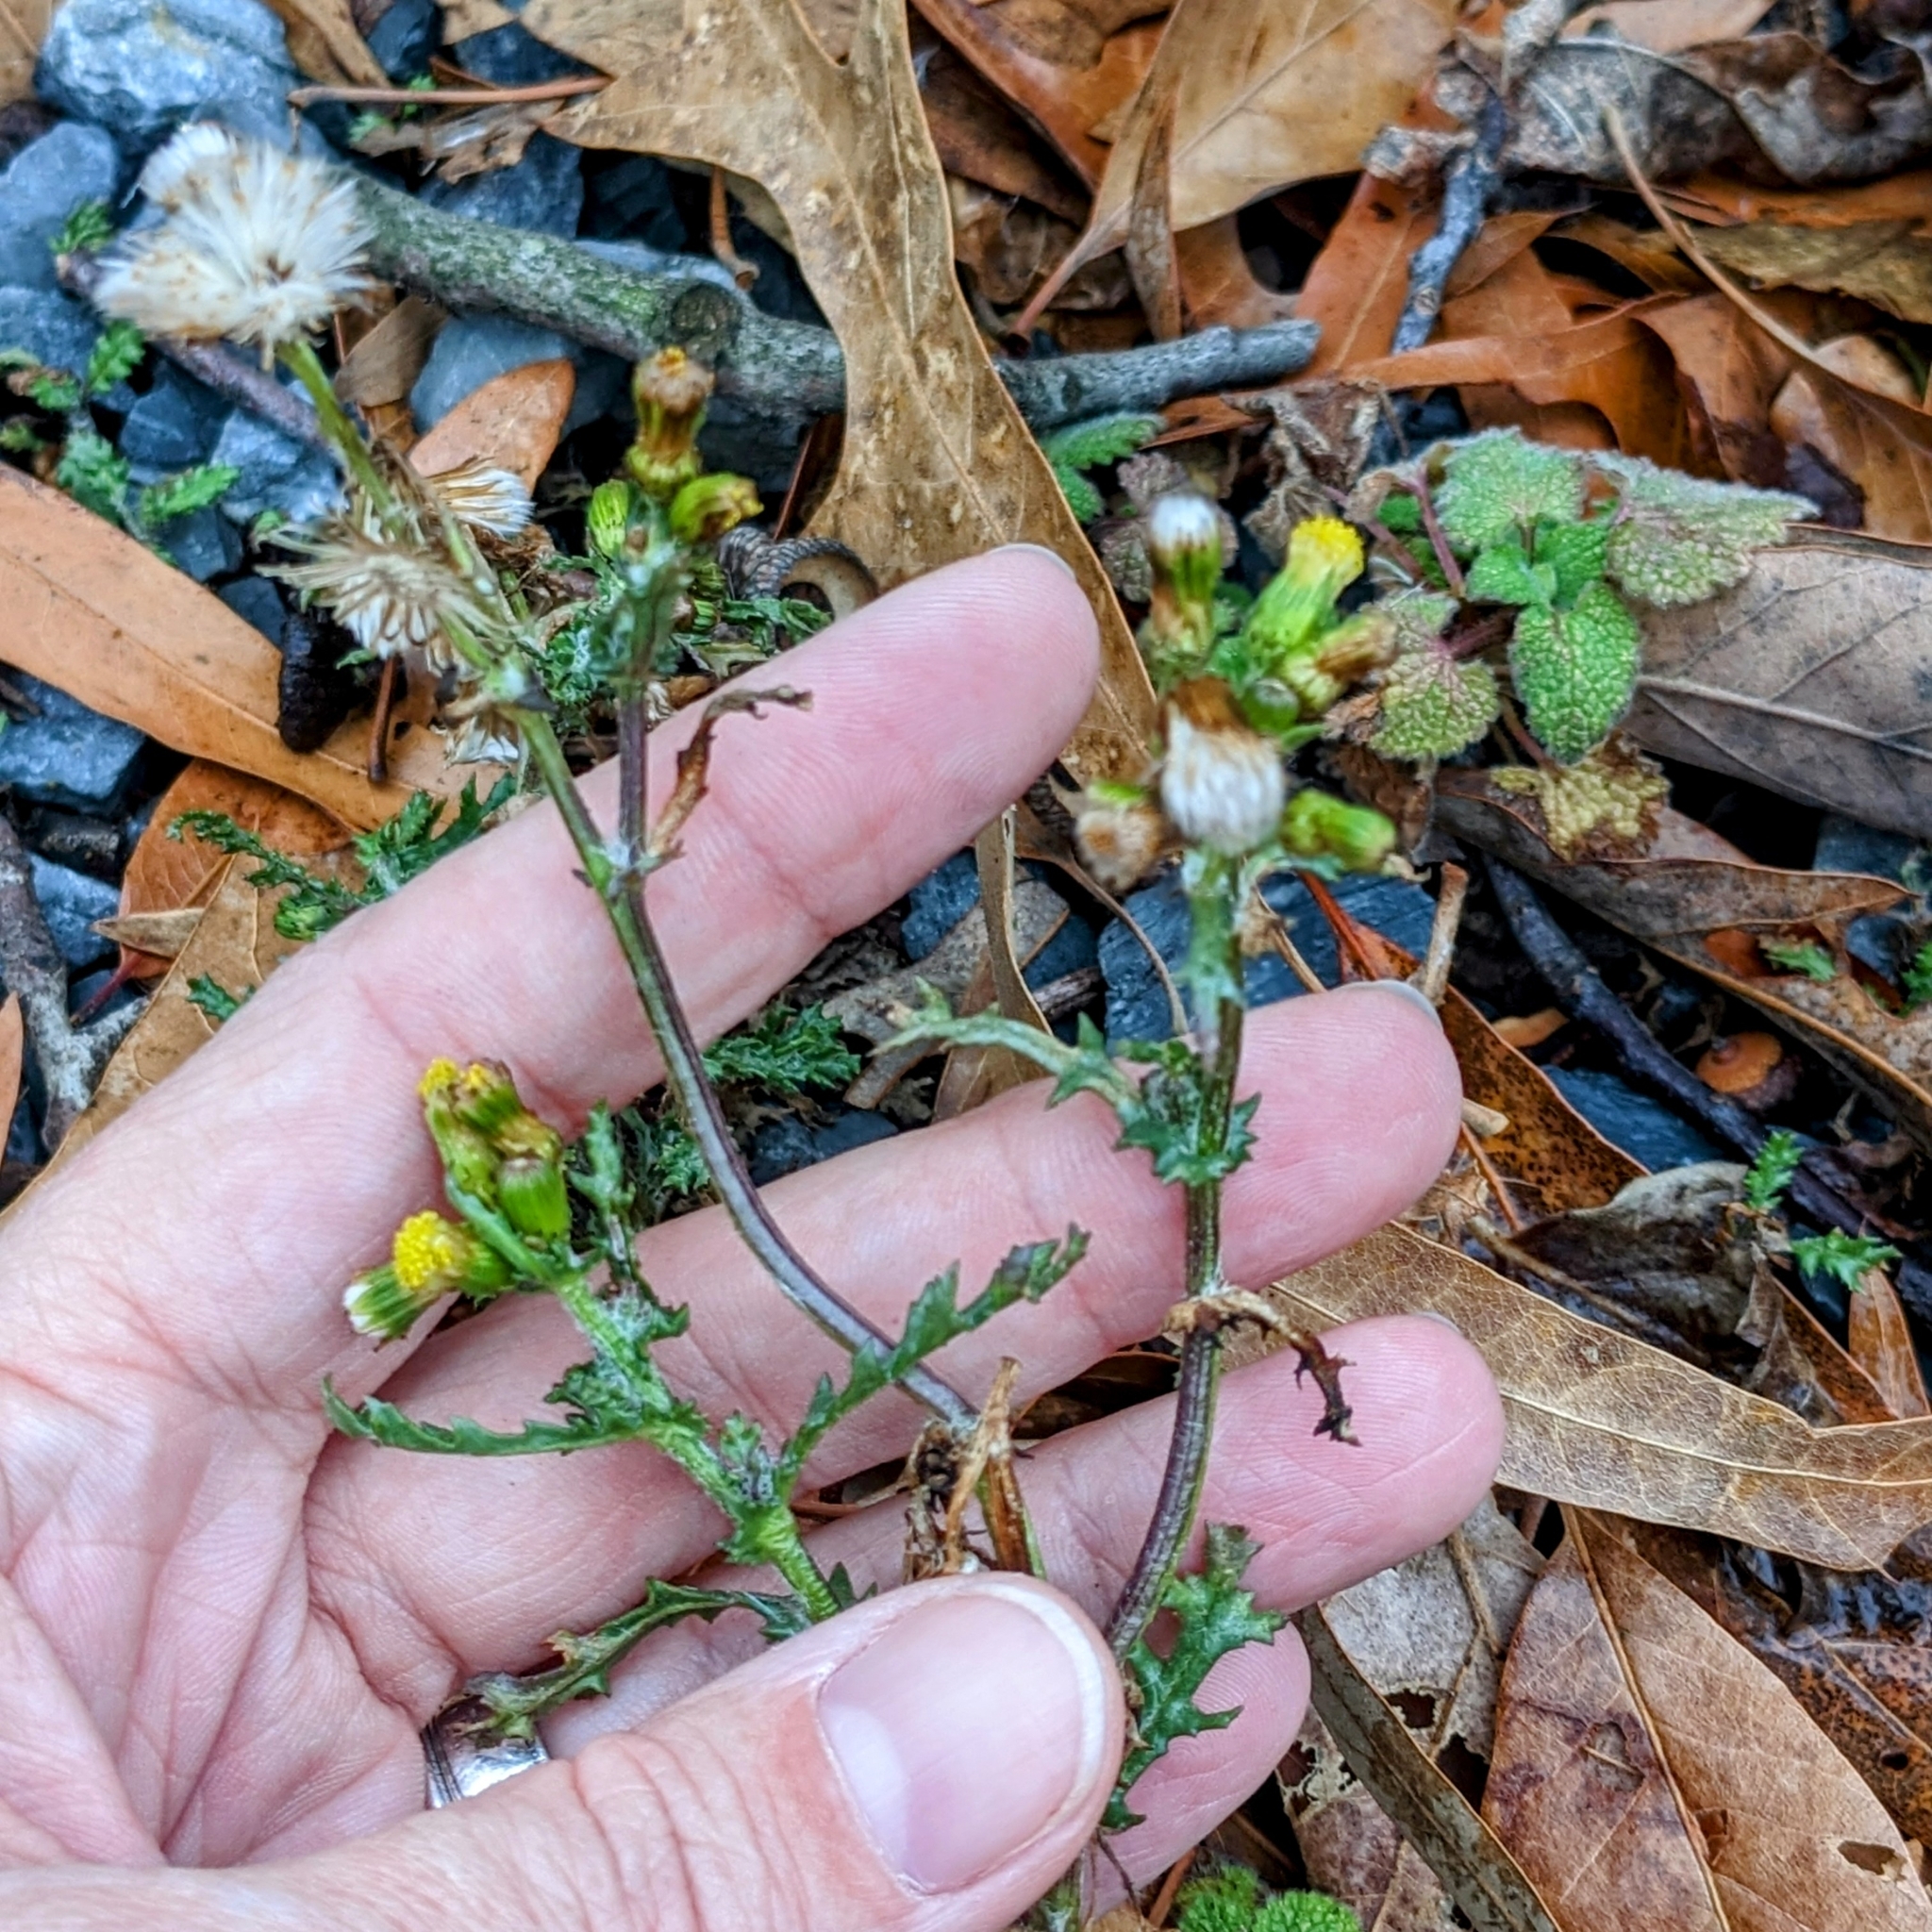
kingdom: Plantae
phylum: Tracheophyta
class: Magnoliopsida
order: Asterales
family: Asteraceae
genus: Senecio
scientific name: Senecio vulgaris
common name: Old-man-in-the-spring
